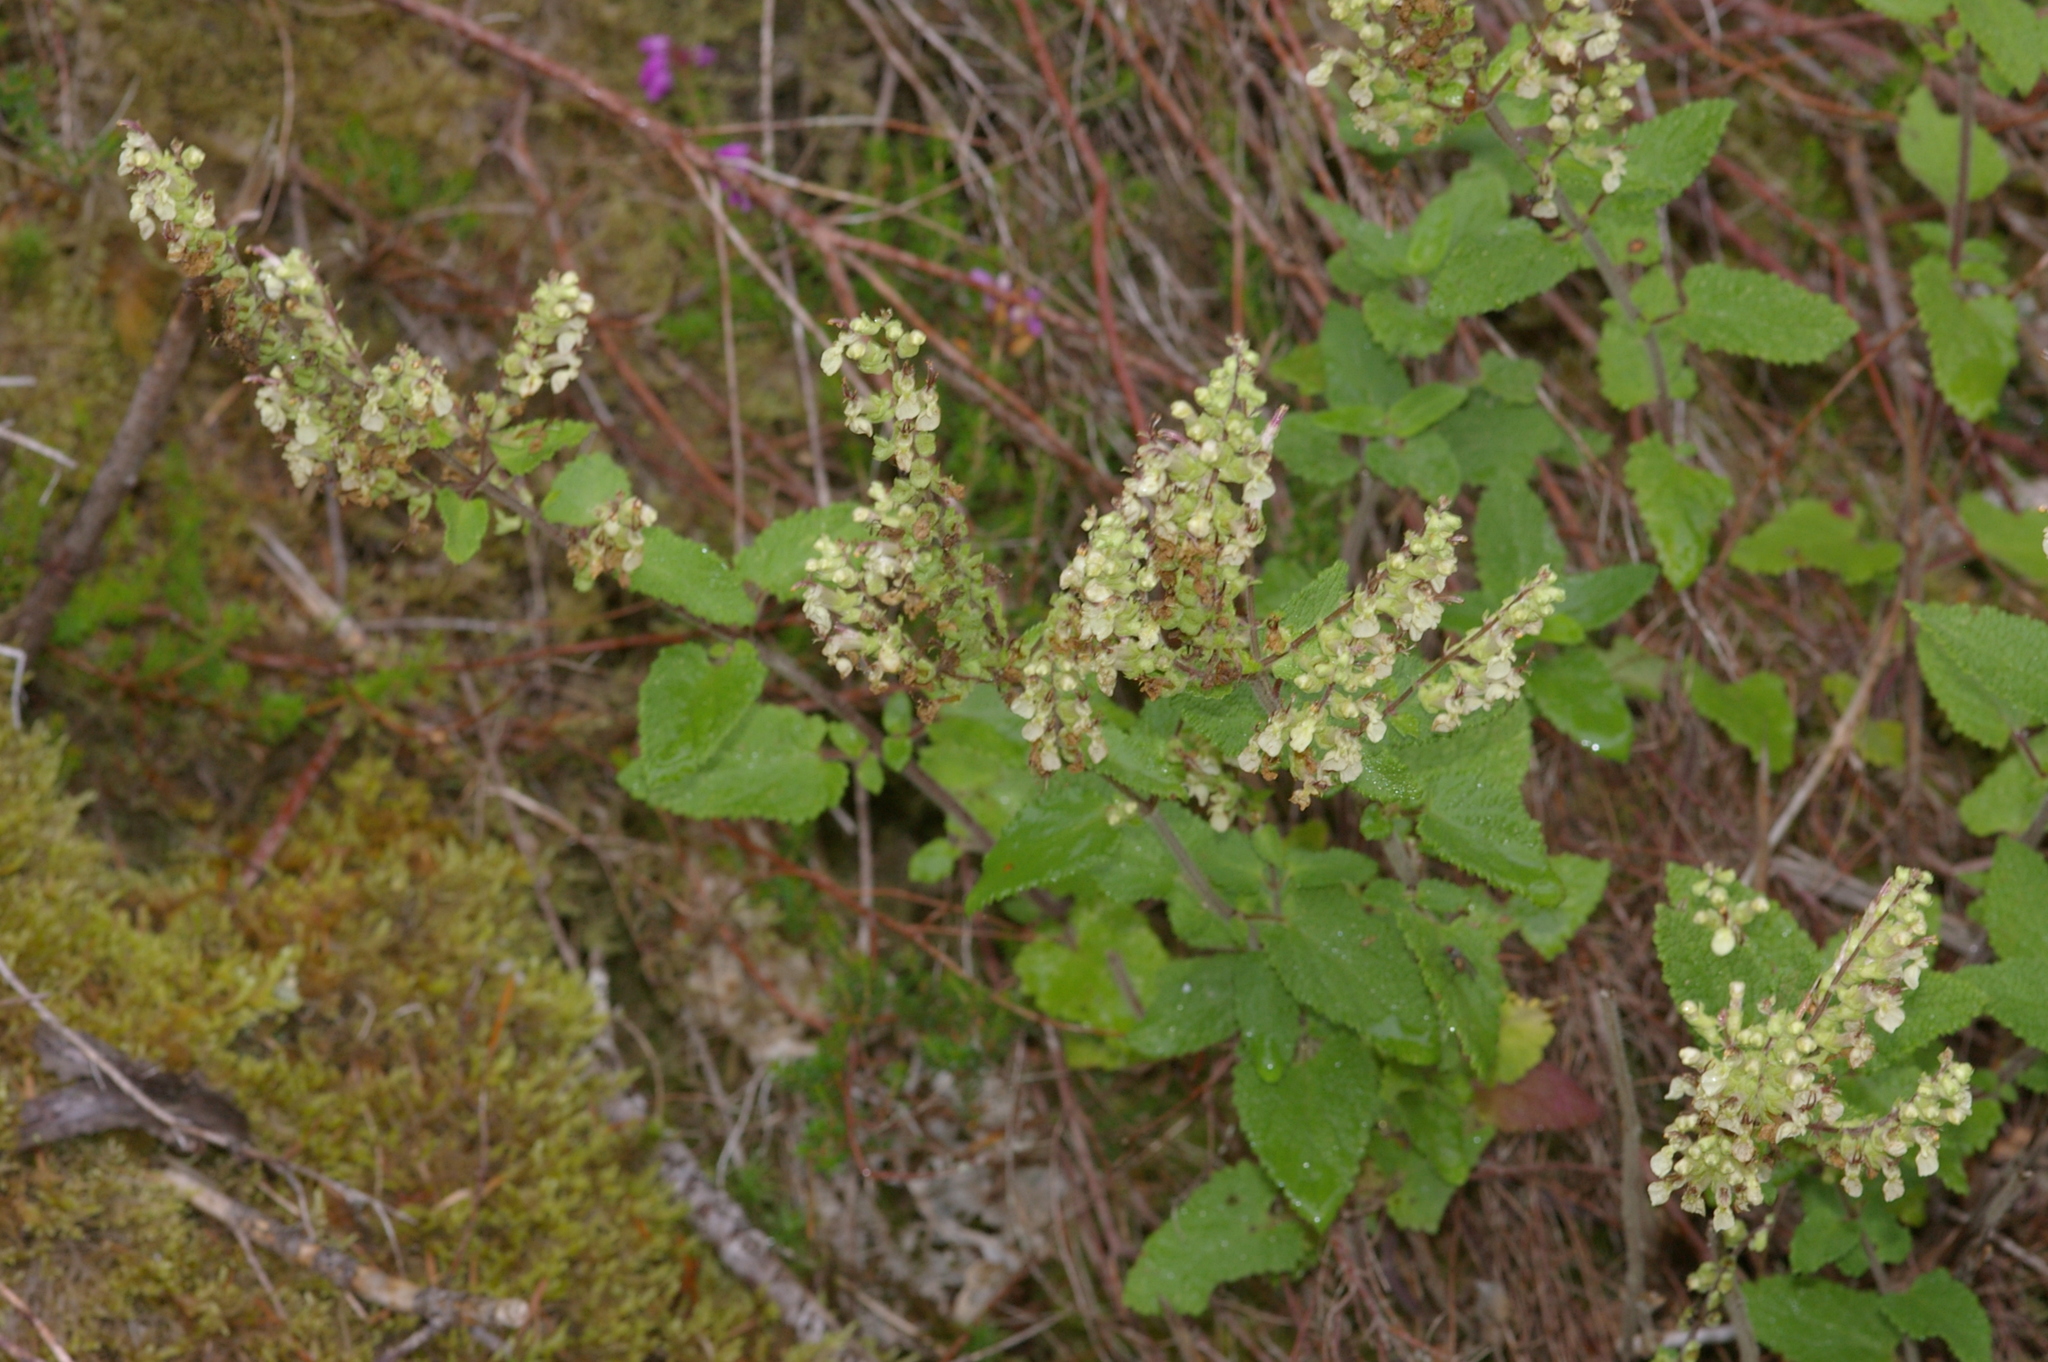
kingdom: Plantae
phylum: Tracheophyta
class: Magnoliopsida
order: Lamiales
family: Lamiaceae
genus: Teucrium
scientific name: Teucrium scorodonia
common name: Woodland germander
